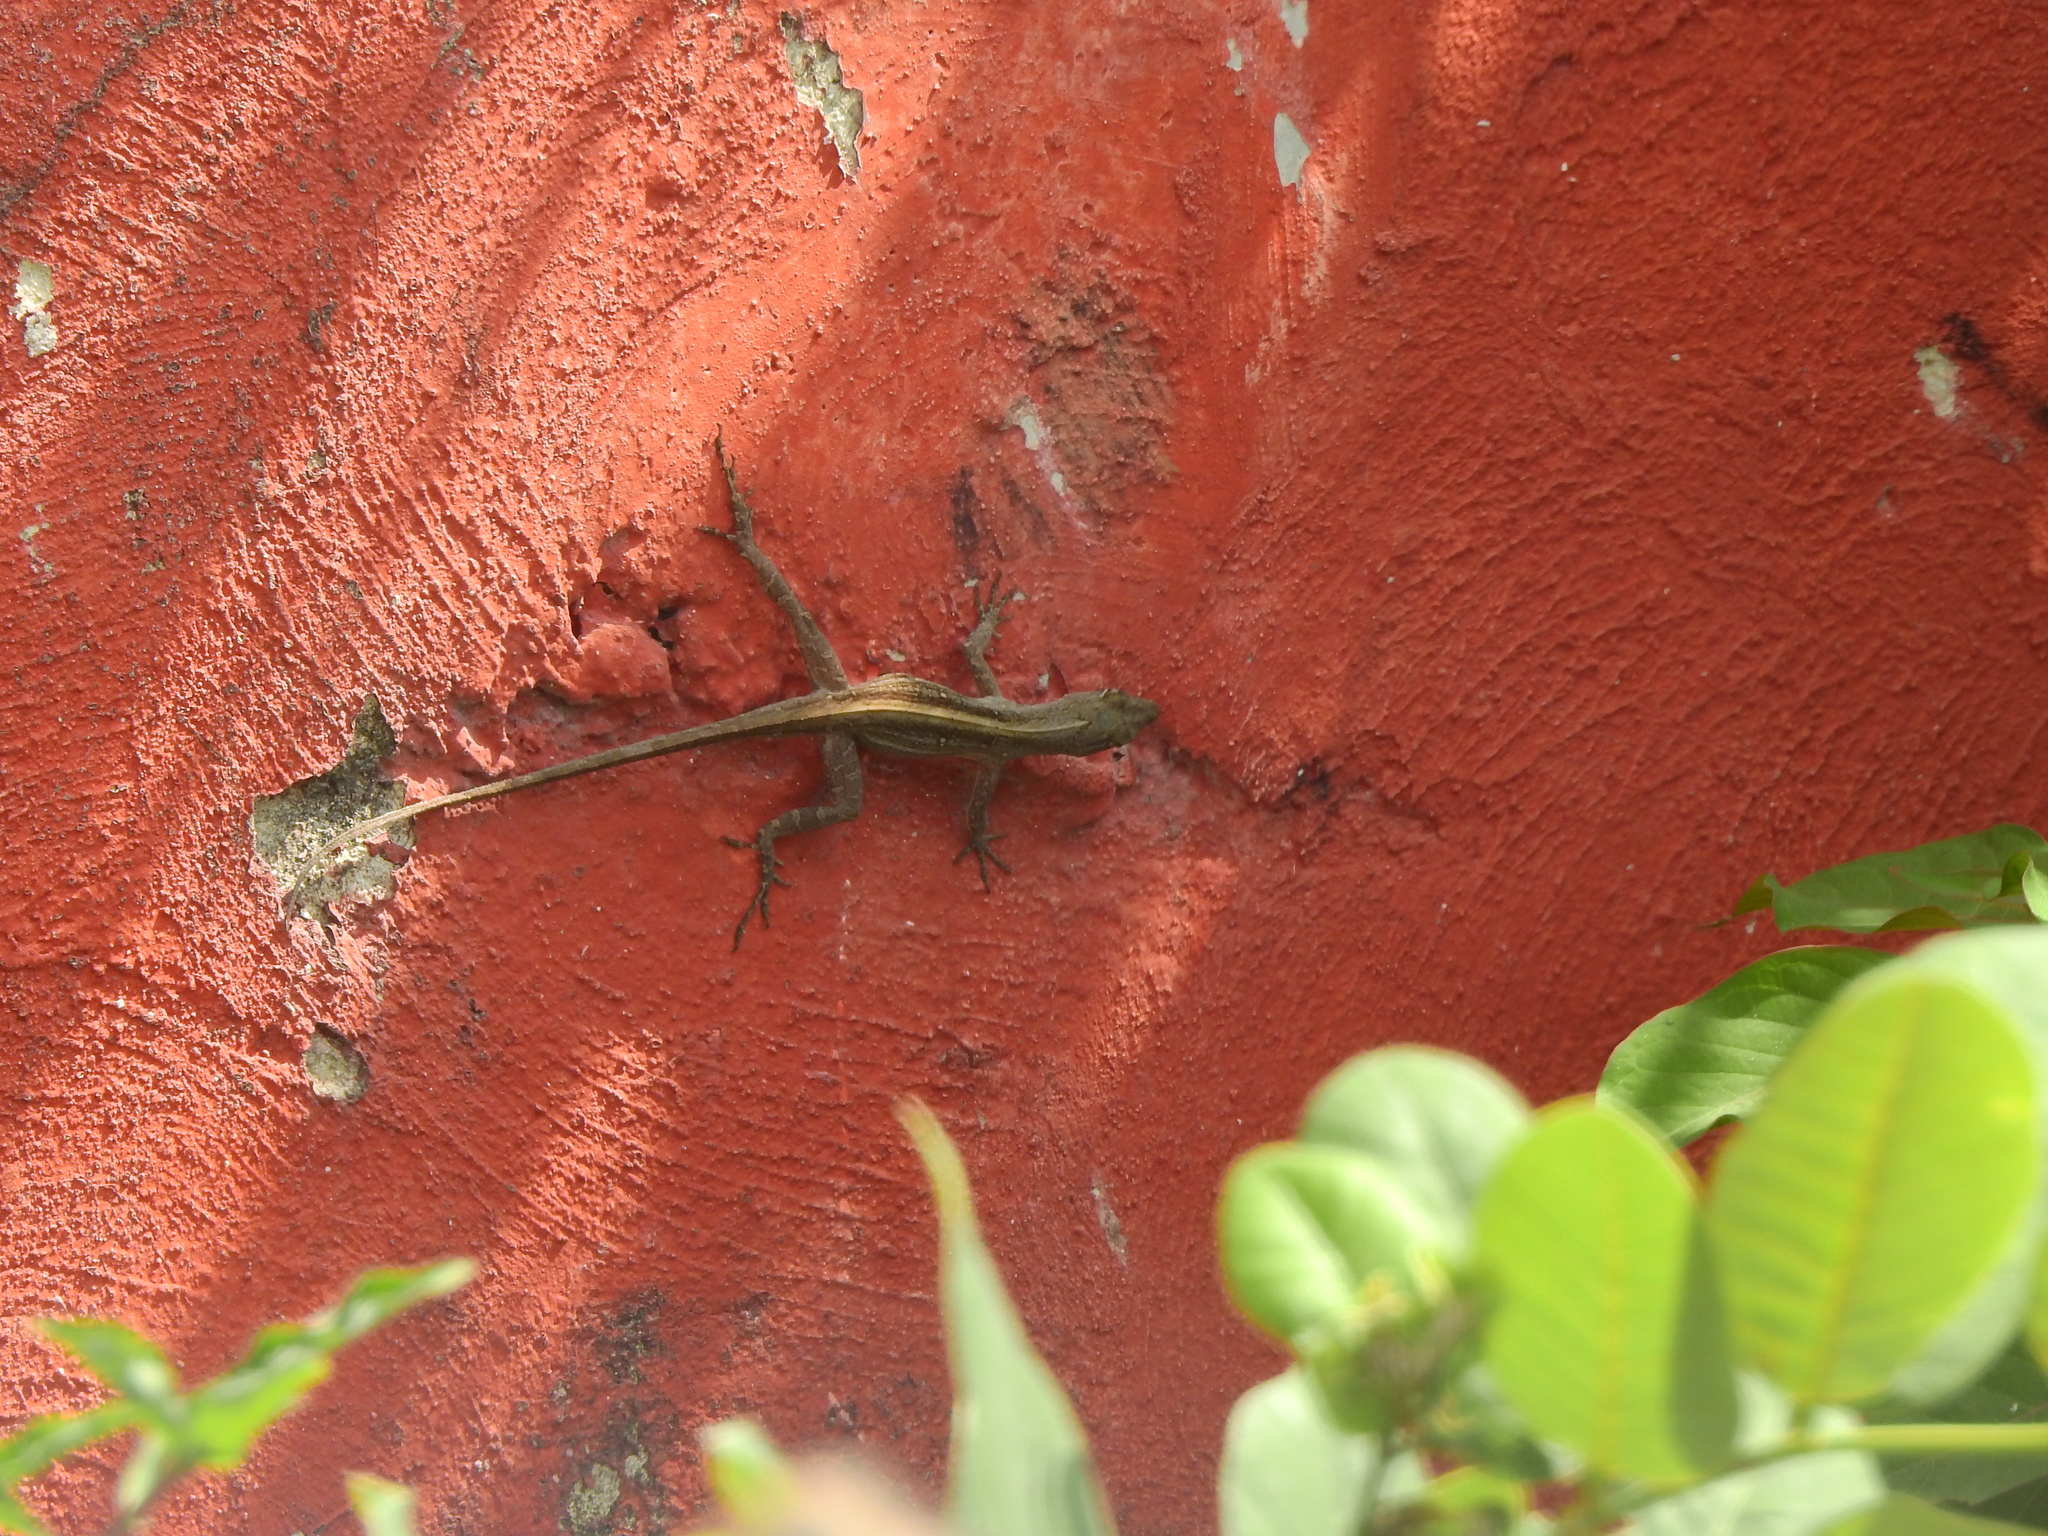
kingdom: Animalia
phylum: Chordata
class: Squamata
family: Dactyloidae
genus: Anolis
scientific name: Anolis sagrei
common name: Brown anole
